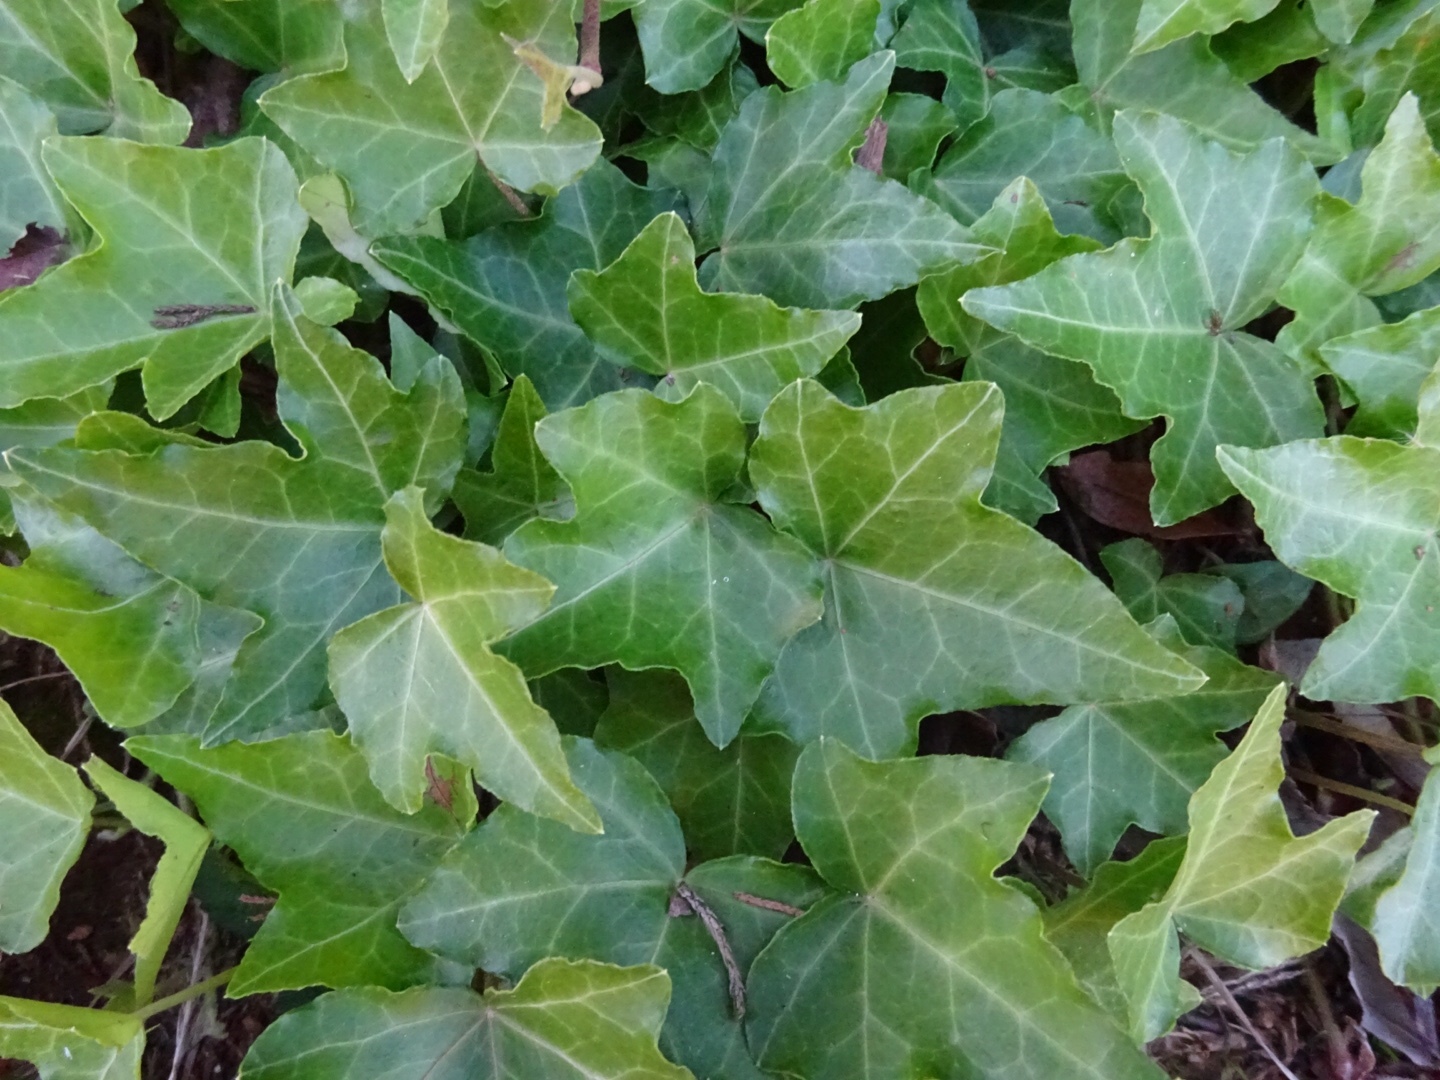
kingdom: Plantae
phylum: Tracheophyta
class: Magnoliopsida
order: Apiales
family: Araliaceae
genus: Hedera
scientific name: Hedera helix
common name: Ivy
